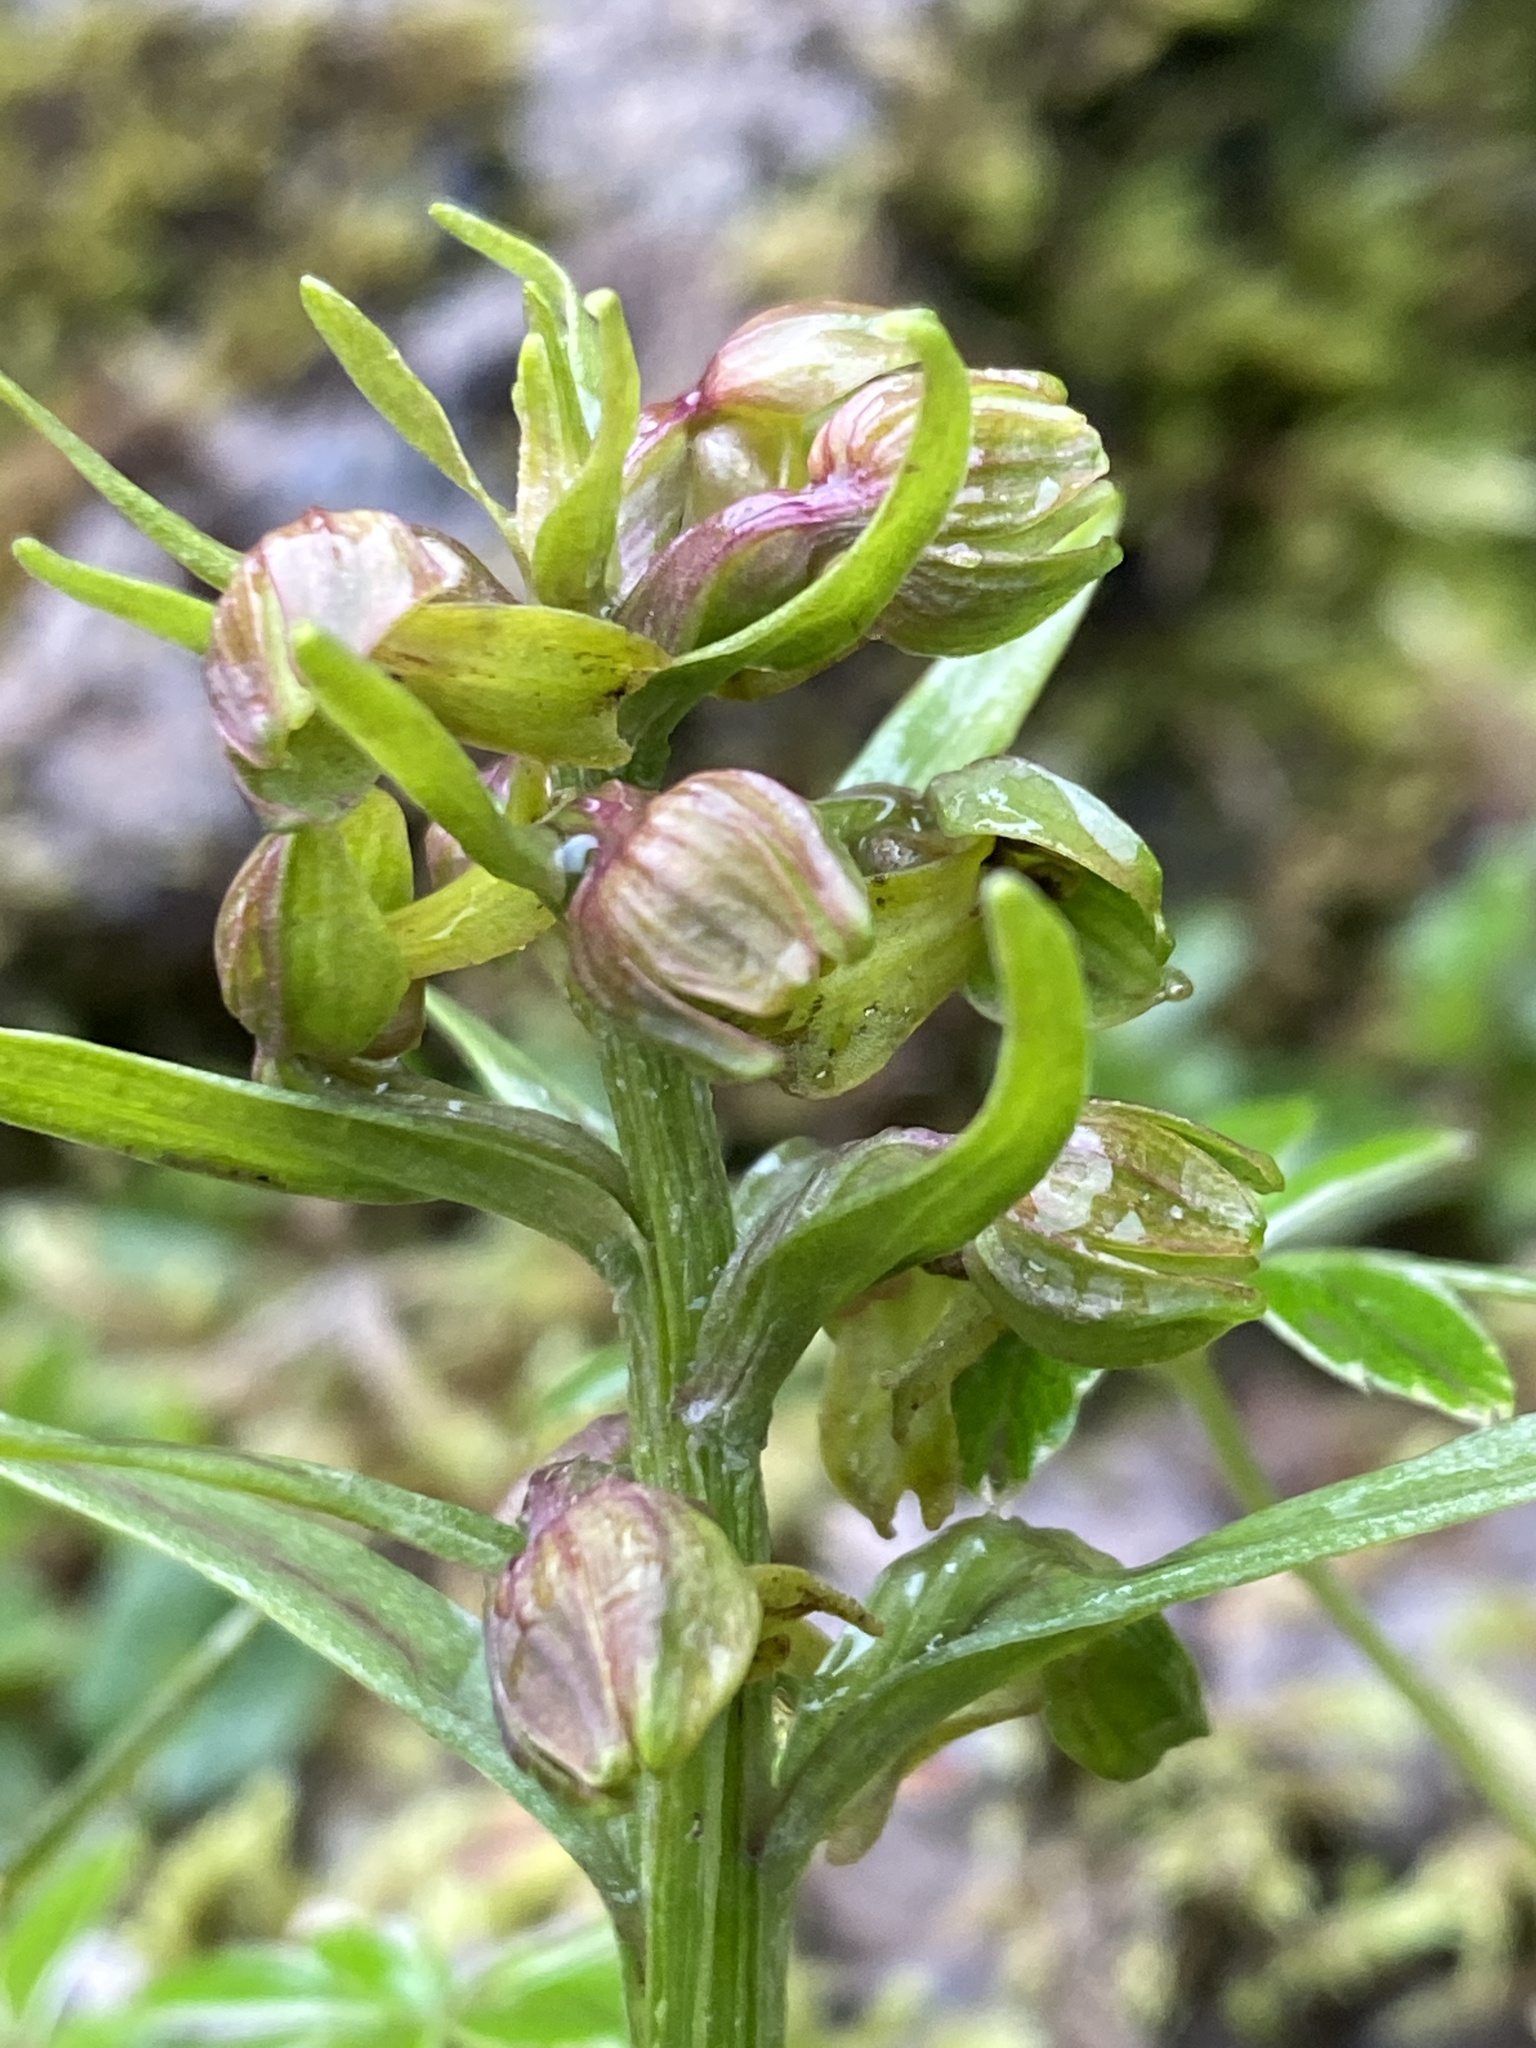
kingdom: Plantae
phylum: Tracheophyta
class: Liliopsida
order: Asparagales
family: Orchidaceae
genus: Dactylorhiza
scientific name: Dactylorhiza viridis
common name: Longbract frog orchid
